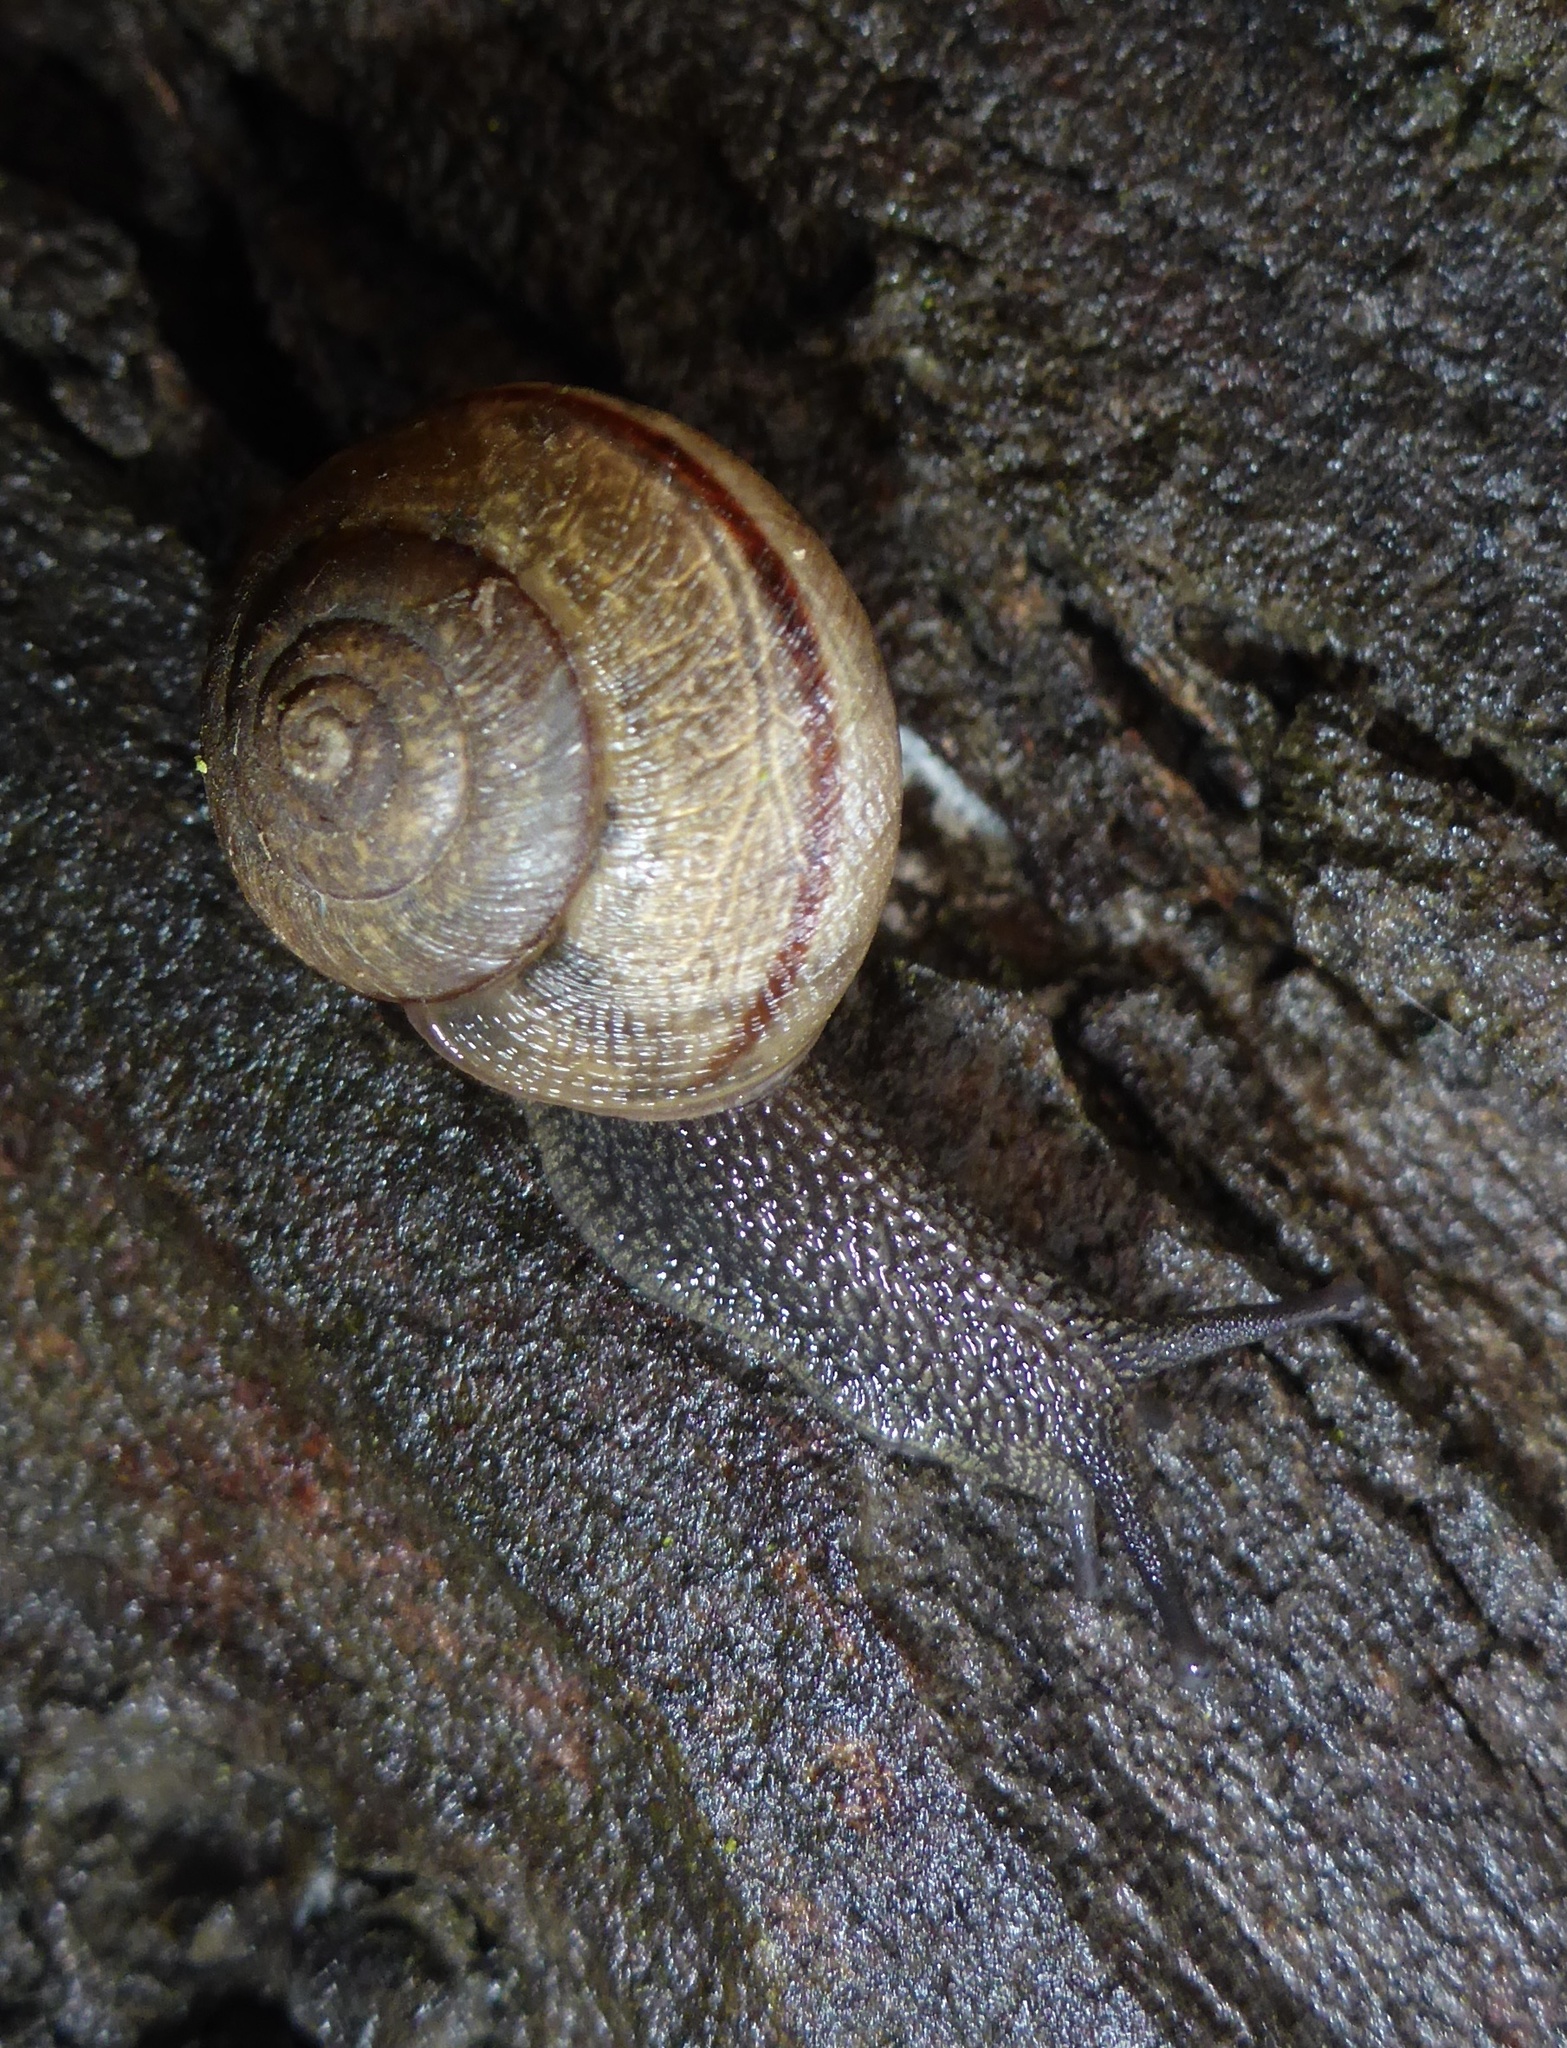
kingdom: Animalia
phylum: Mollusca
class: Gastropoda
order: Stylommatophora
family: Xanthonychidae
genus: Helminthoglypta
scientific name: Helminthoglypta nickliniana
